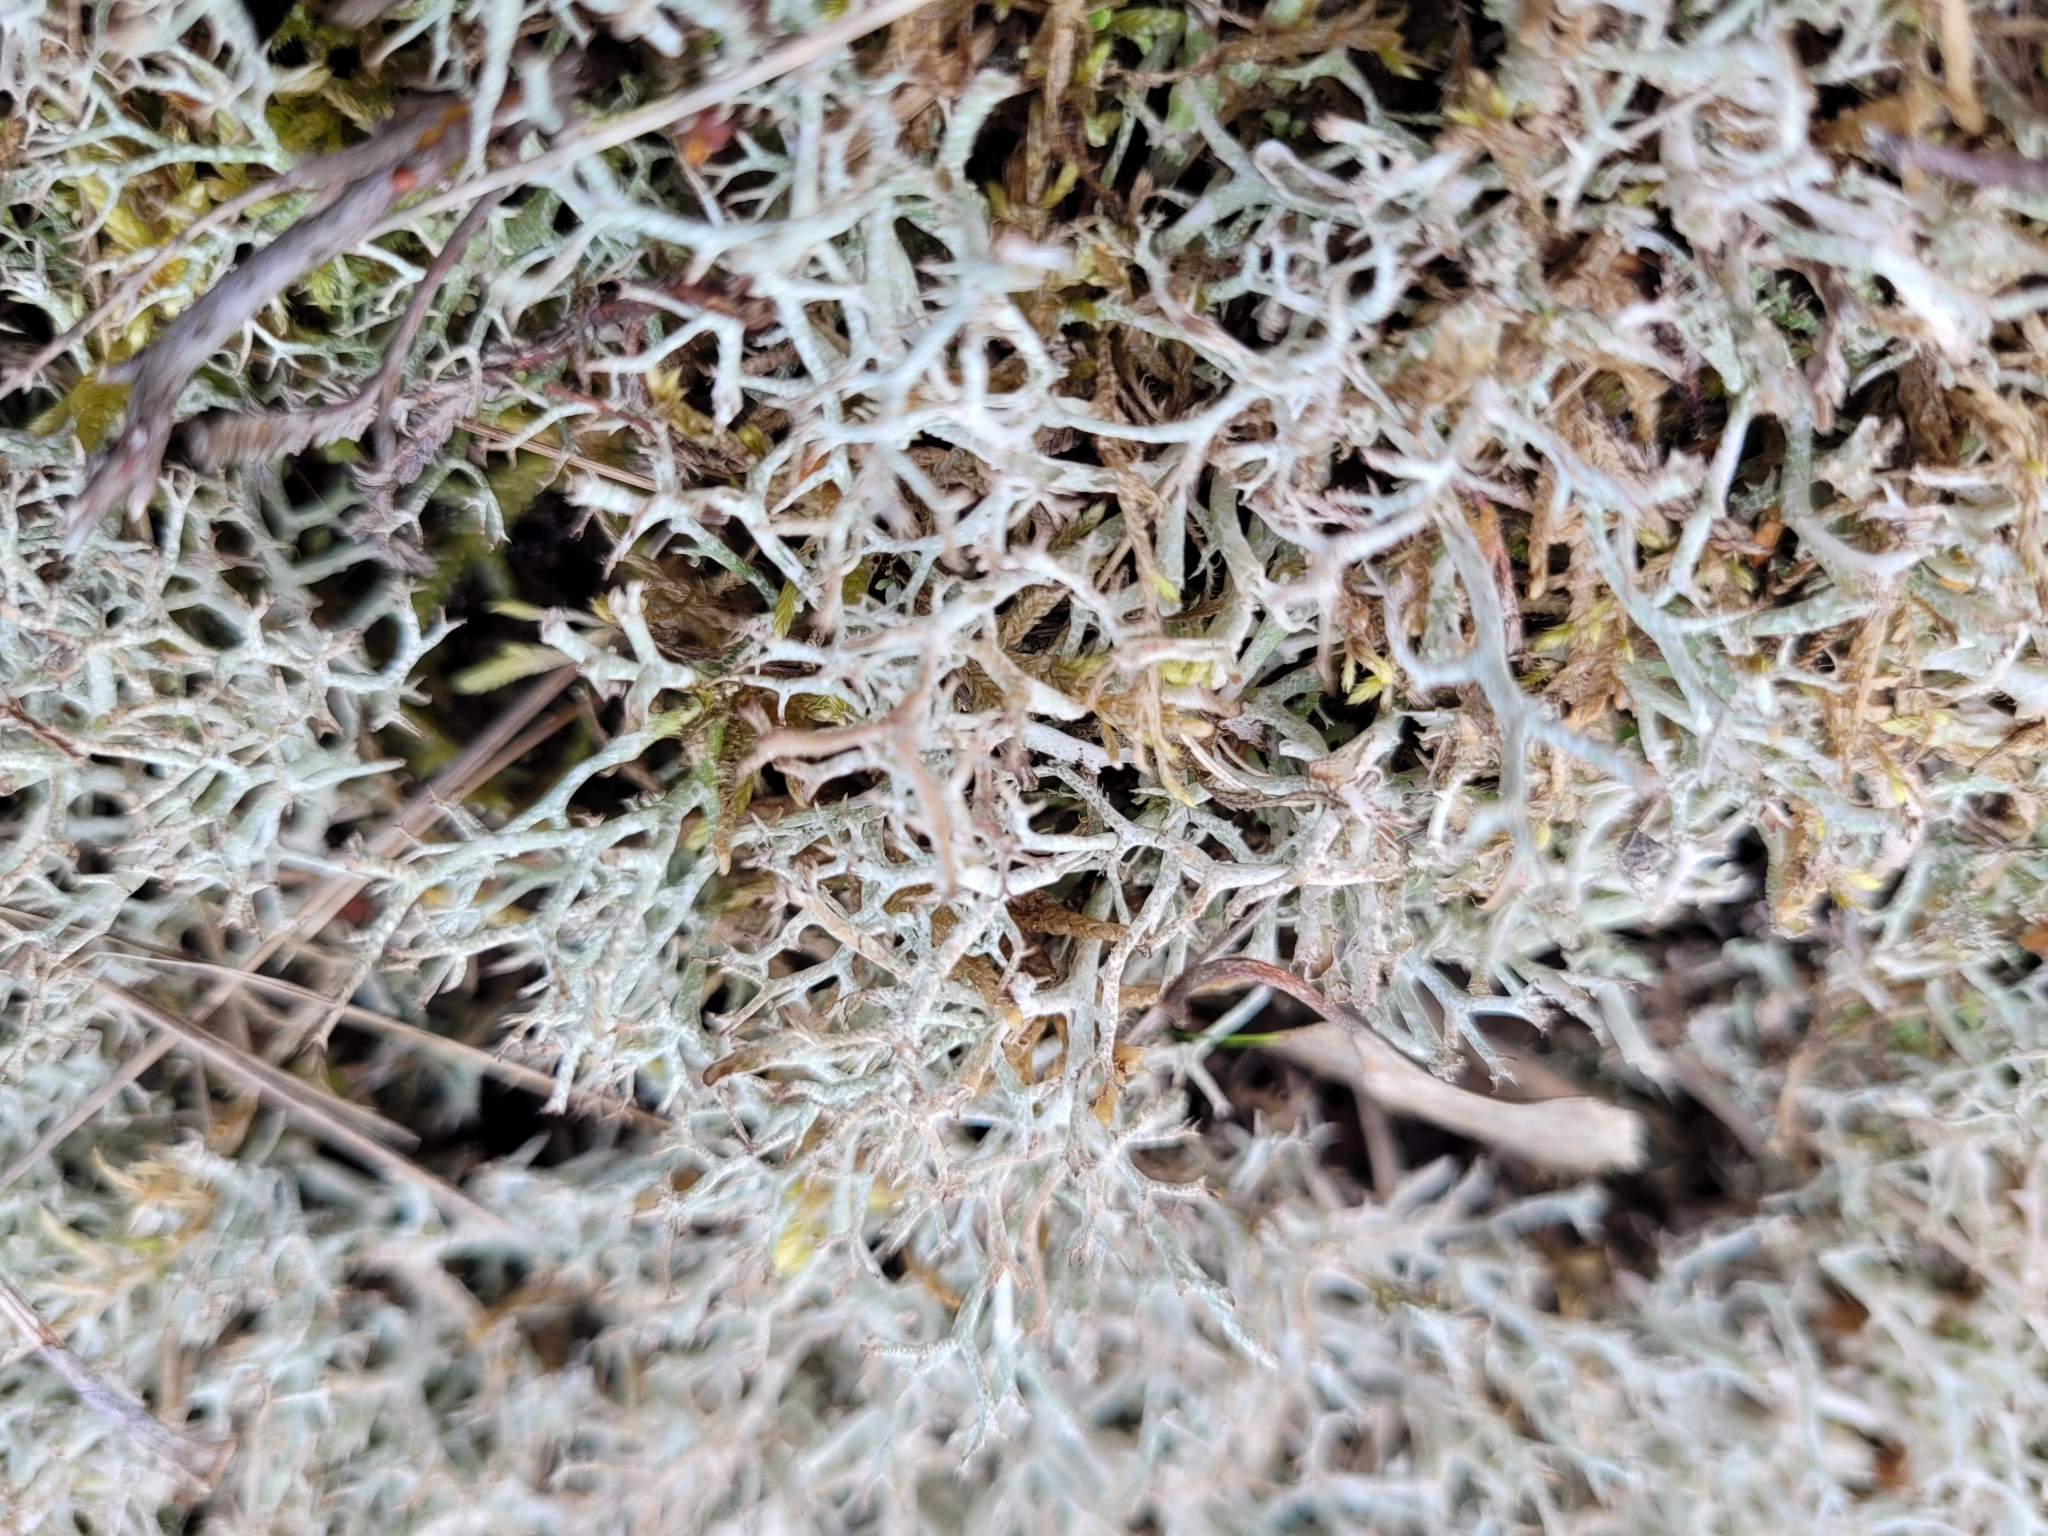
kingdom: Fungi
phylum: Ascomycota
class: Lecanoromycetes
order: Lecanorales
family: Cladoniaceae
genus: Cladonia
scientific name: Cladonia rangiformis
